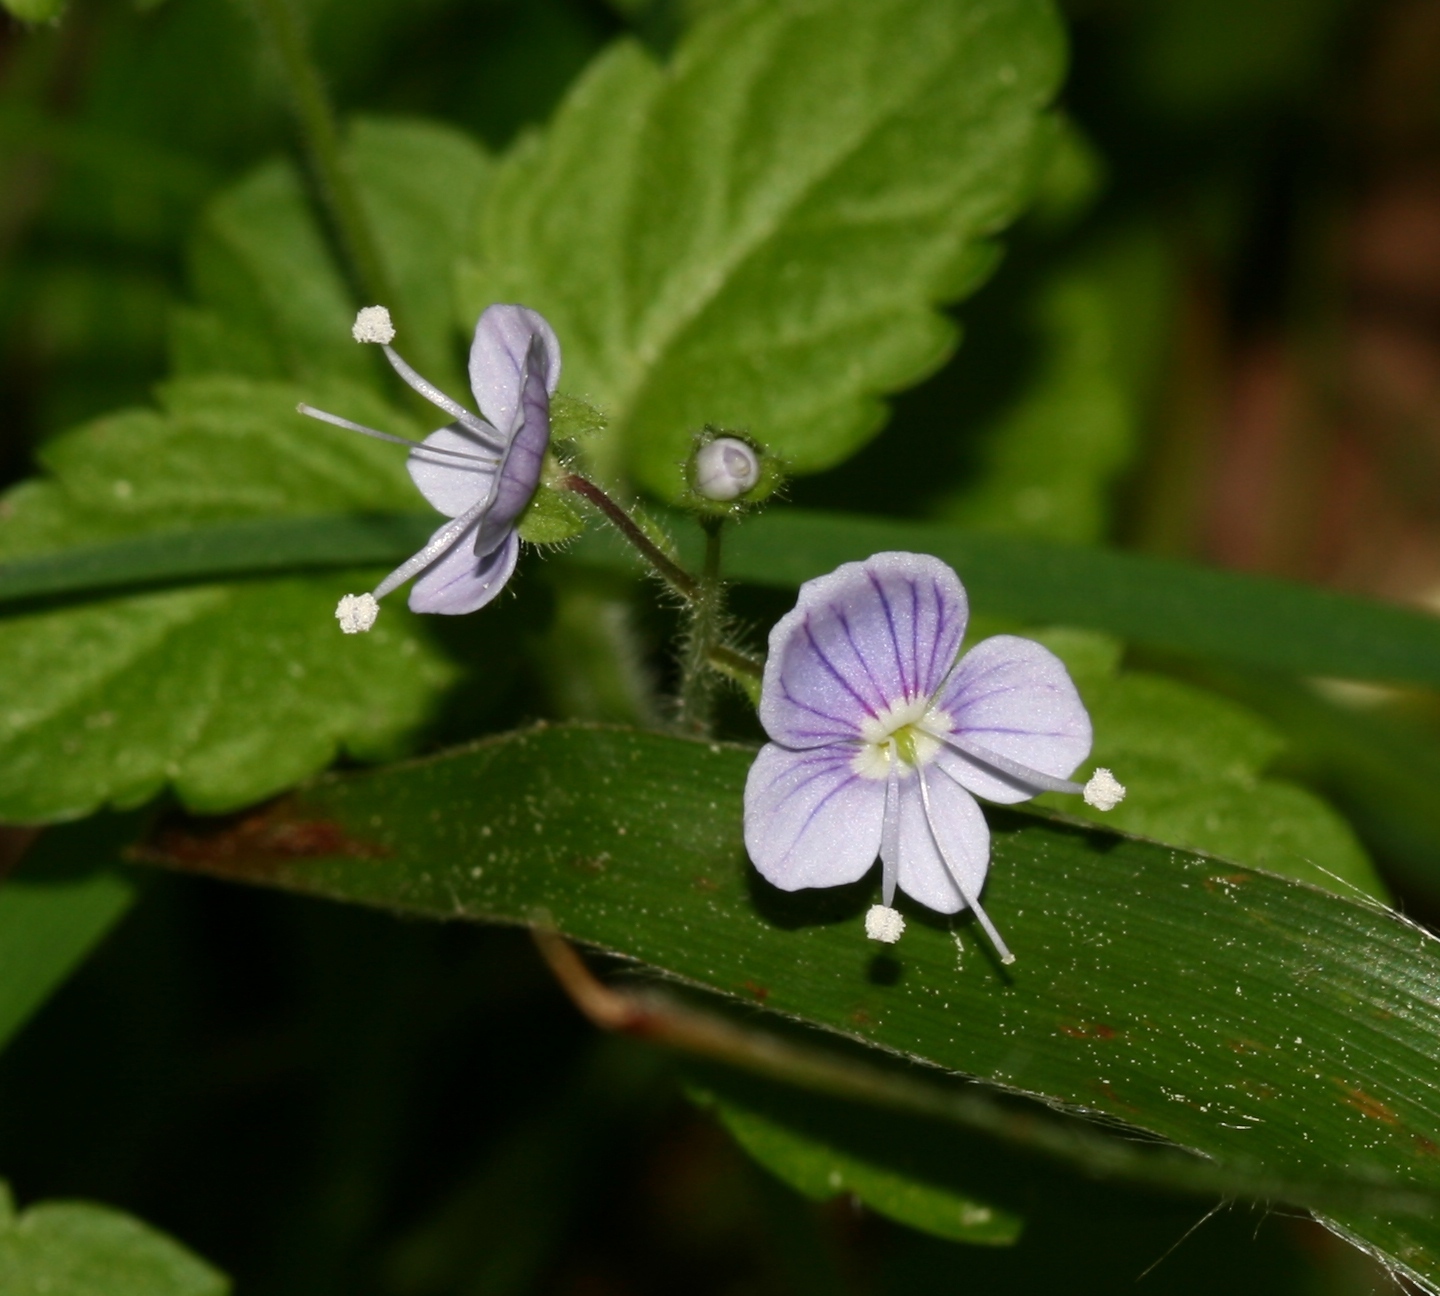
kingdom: Plantae
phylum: Tracheophyta
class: Magnoliopsida
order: Lamiales
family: Plantaginaceae
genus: Veronica
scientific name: Veronica montana
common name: Wood speedwell
